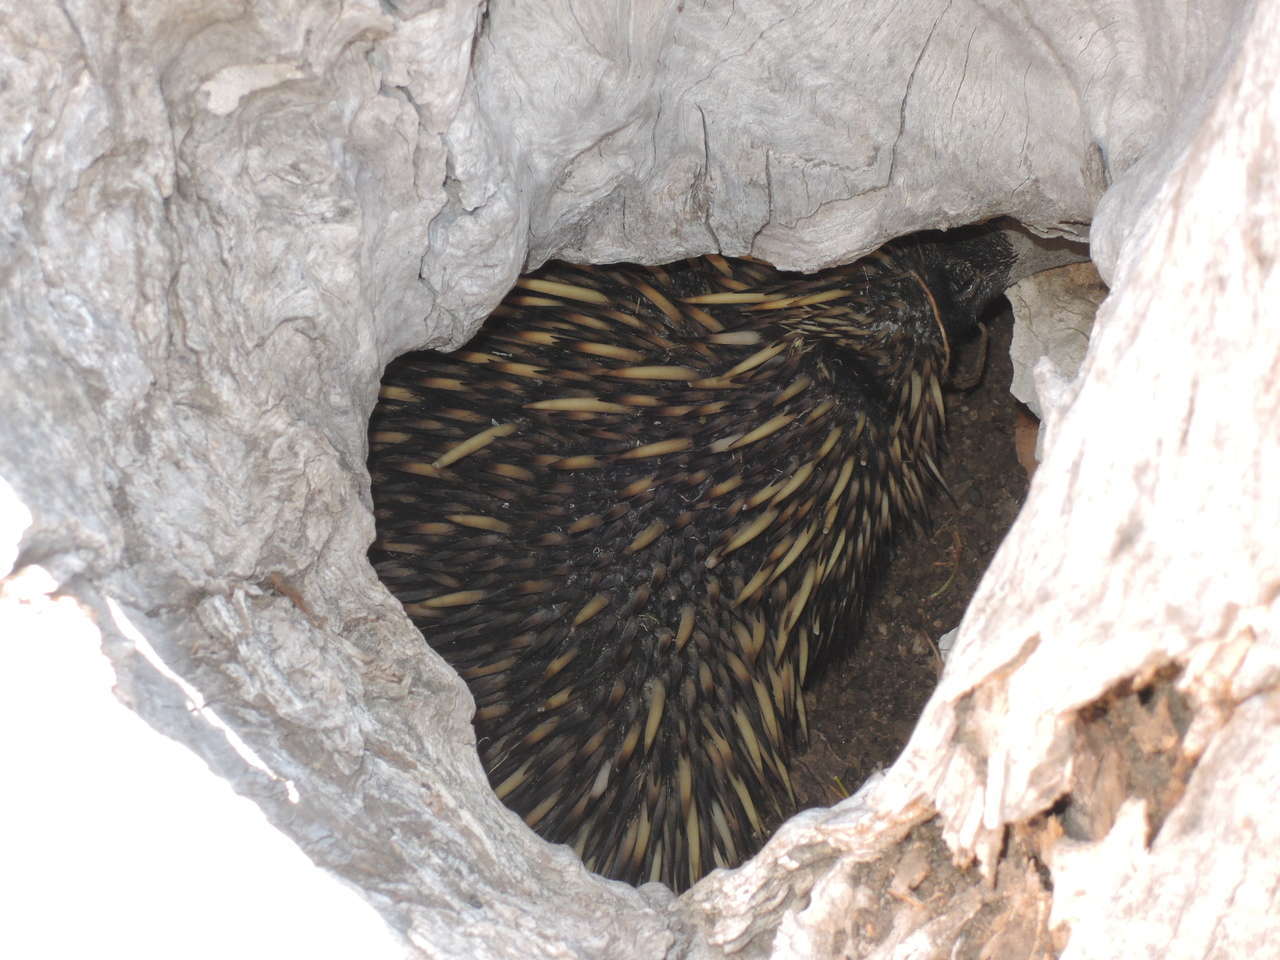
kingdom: Animalia
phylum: Chordata
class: Mammalia
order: Monotremata
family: Tachyglossidae
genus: Tachyglossus
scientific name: Tachyglossus aculeatus
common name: Short-beaked echidna
